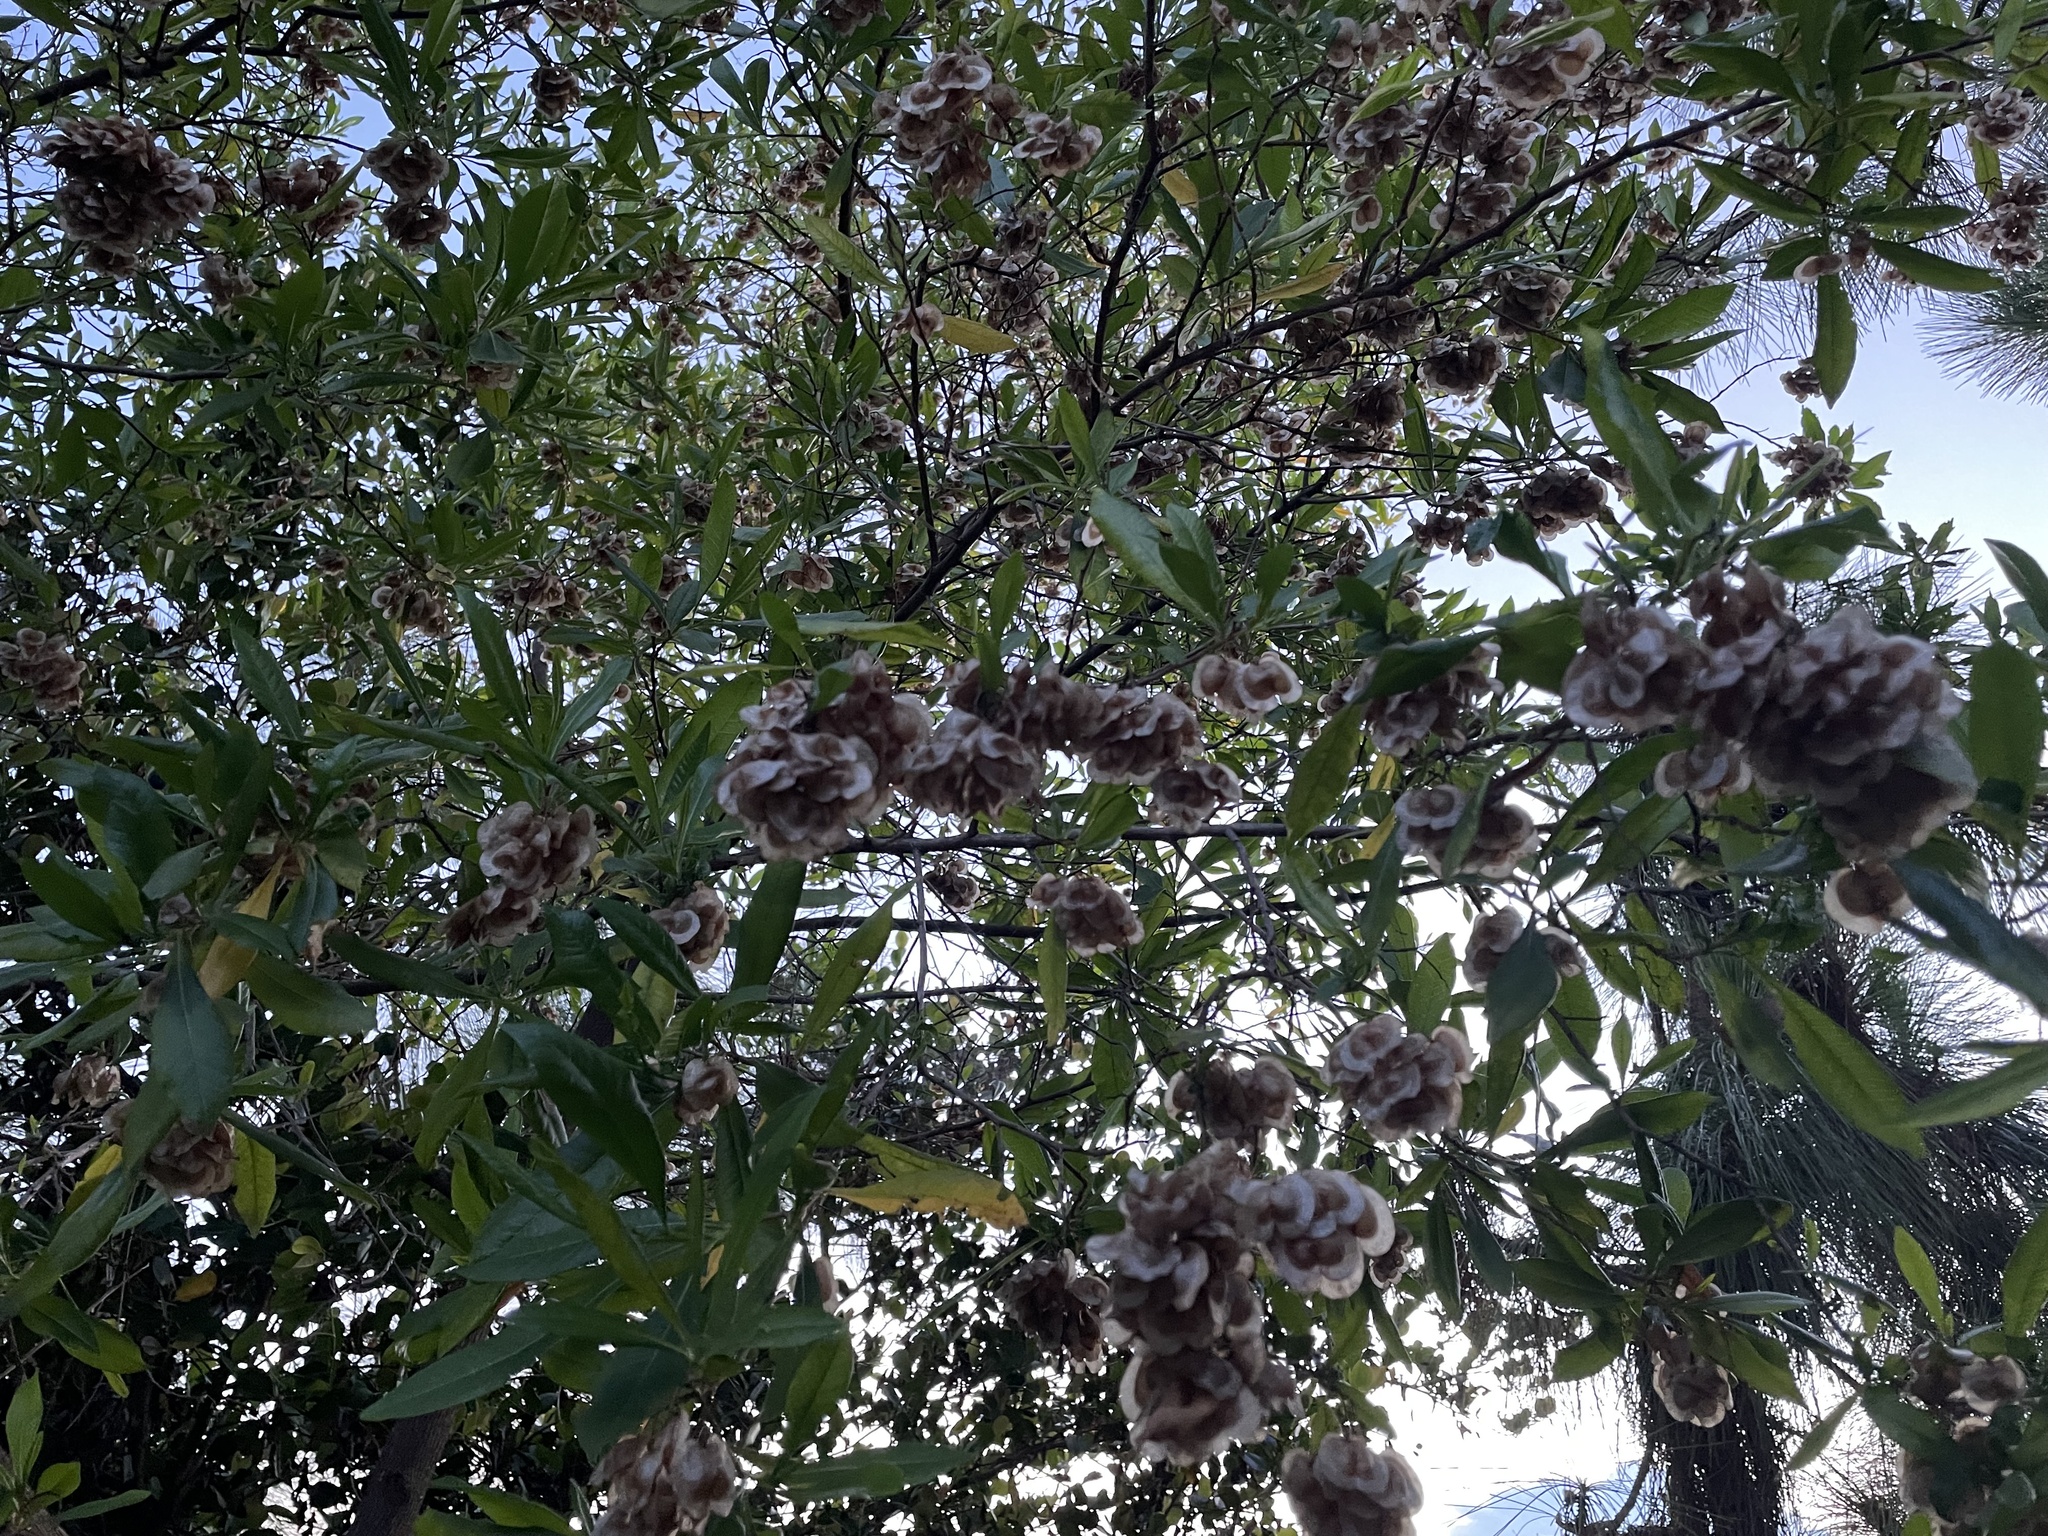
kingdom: Plantae
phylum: Tracheophyta
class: Magnoliopsida
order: Sapindales
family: Sapindaceae
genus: Dodonaea
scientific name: Dodonaea viscosa
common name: Hopbush
